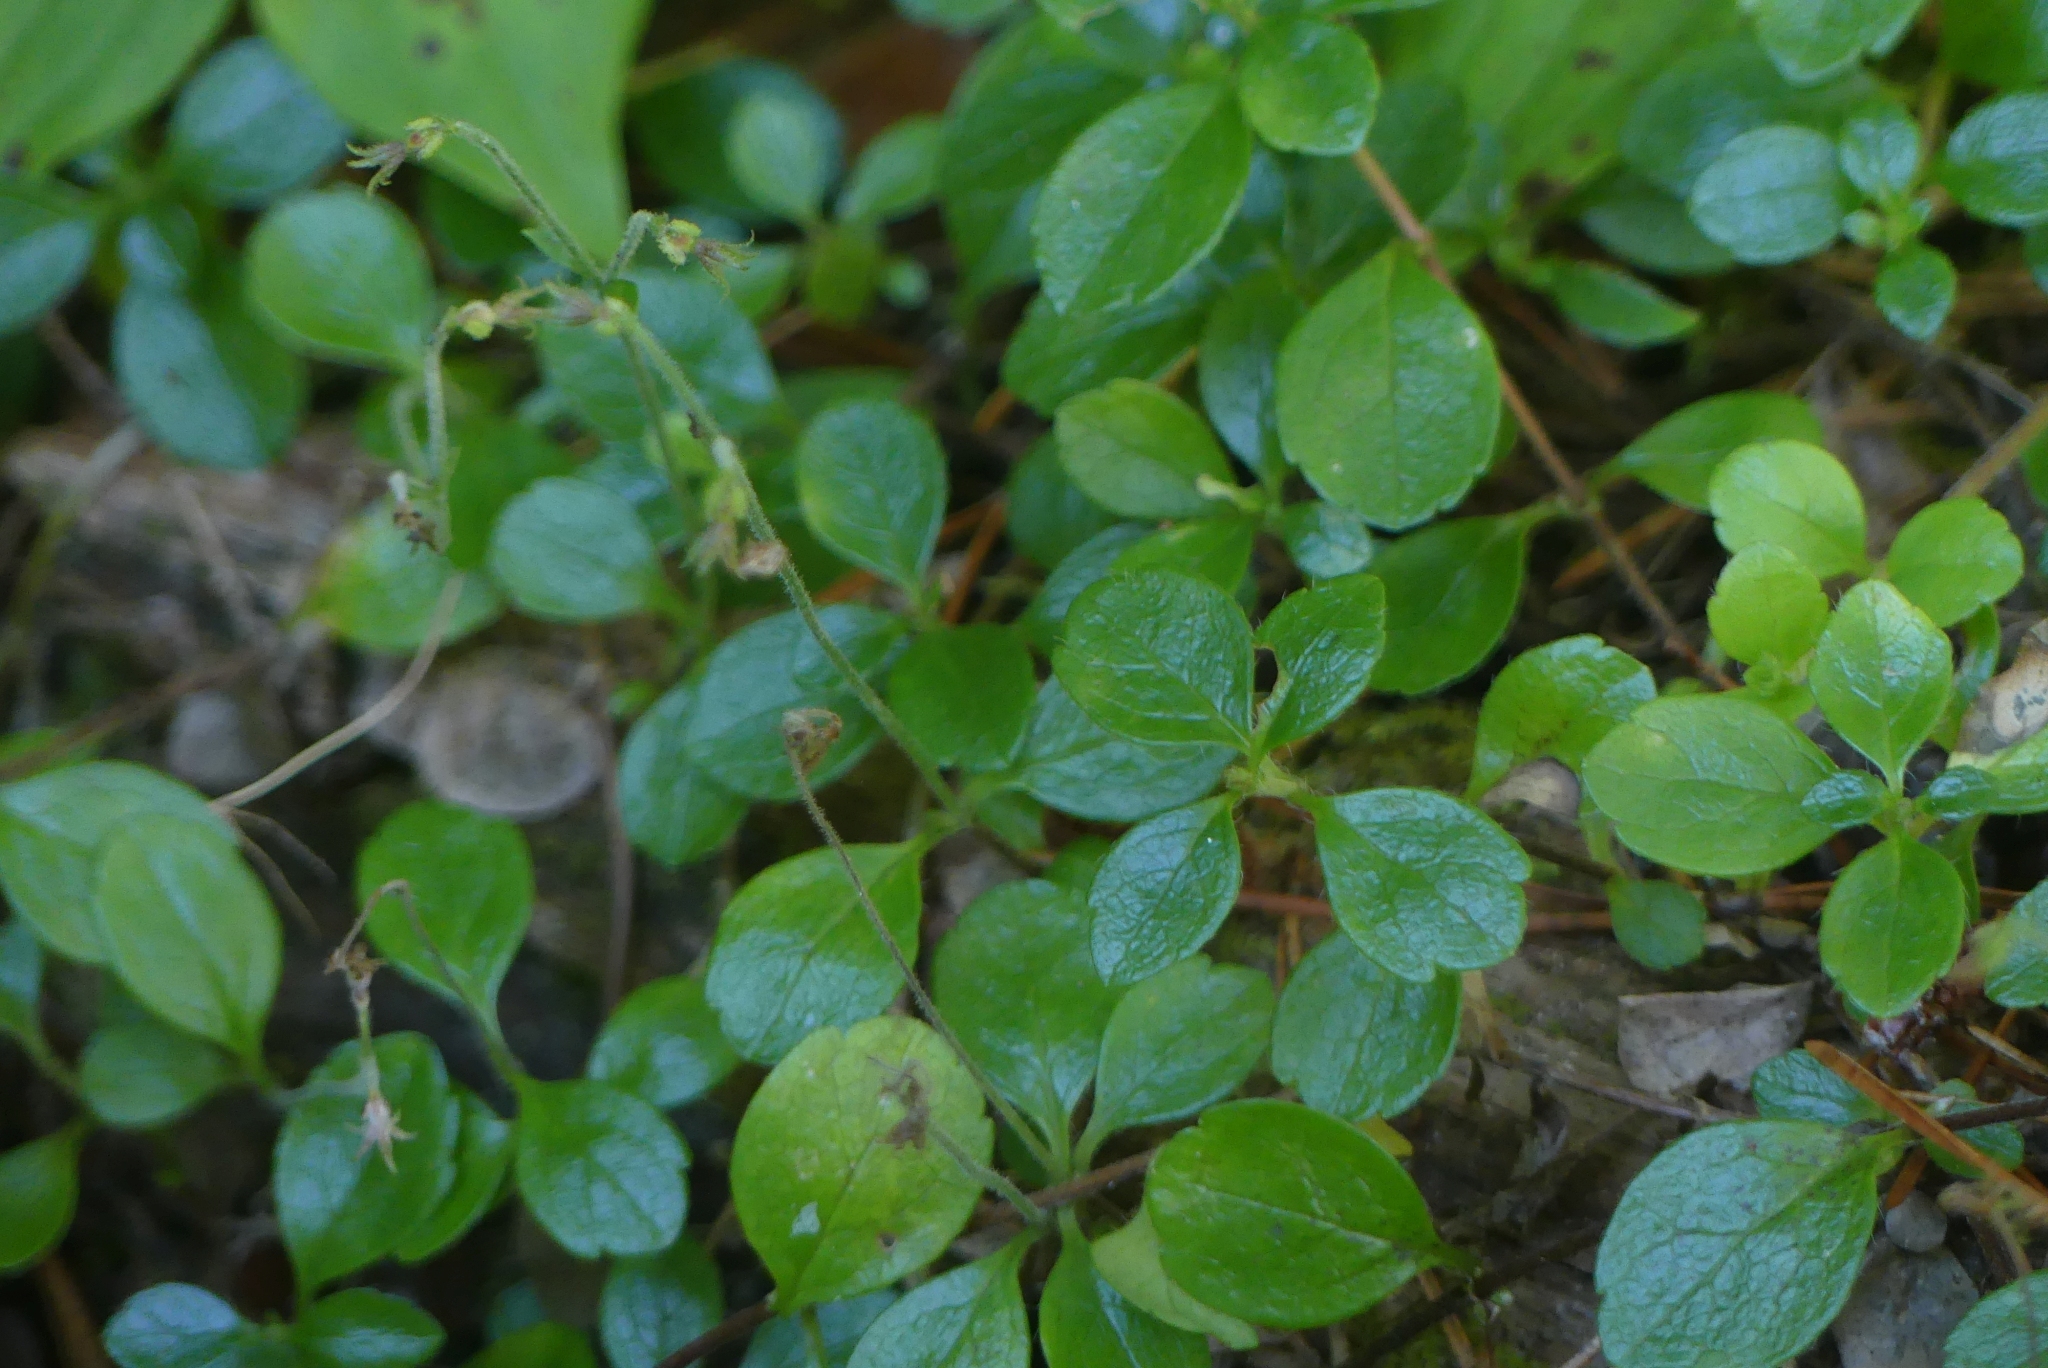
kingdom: Plantae
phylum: Tracheophyta
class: Magnoliopsida
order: Dipsacales
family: Caprifoliaceae
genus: Linnaea
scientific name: Linnaea borealis
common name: Twinflower
